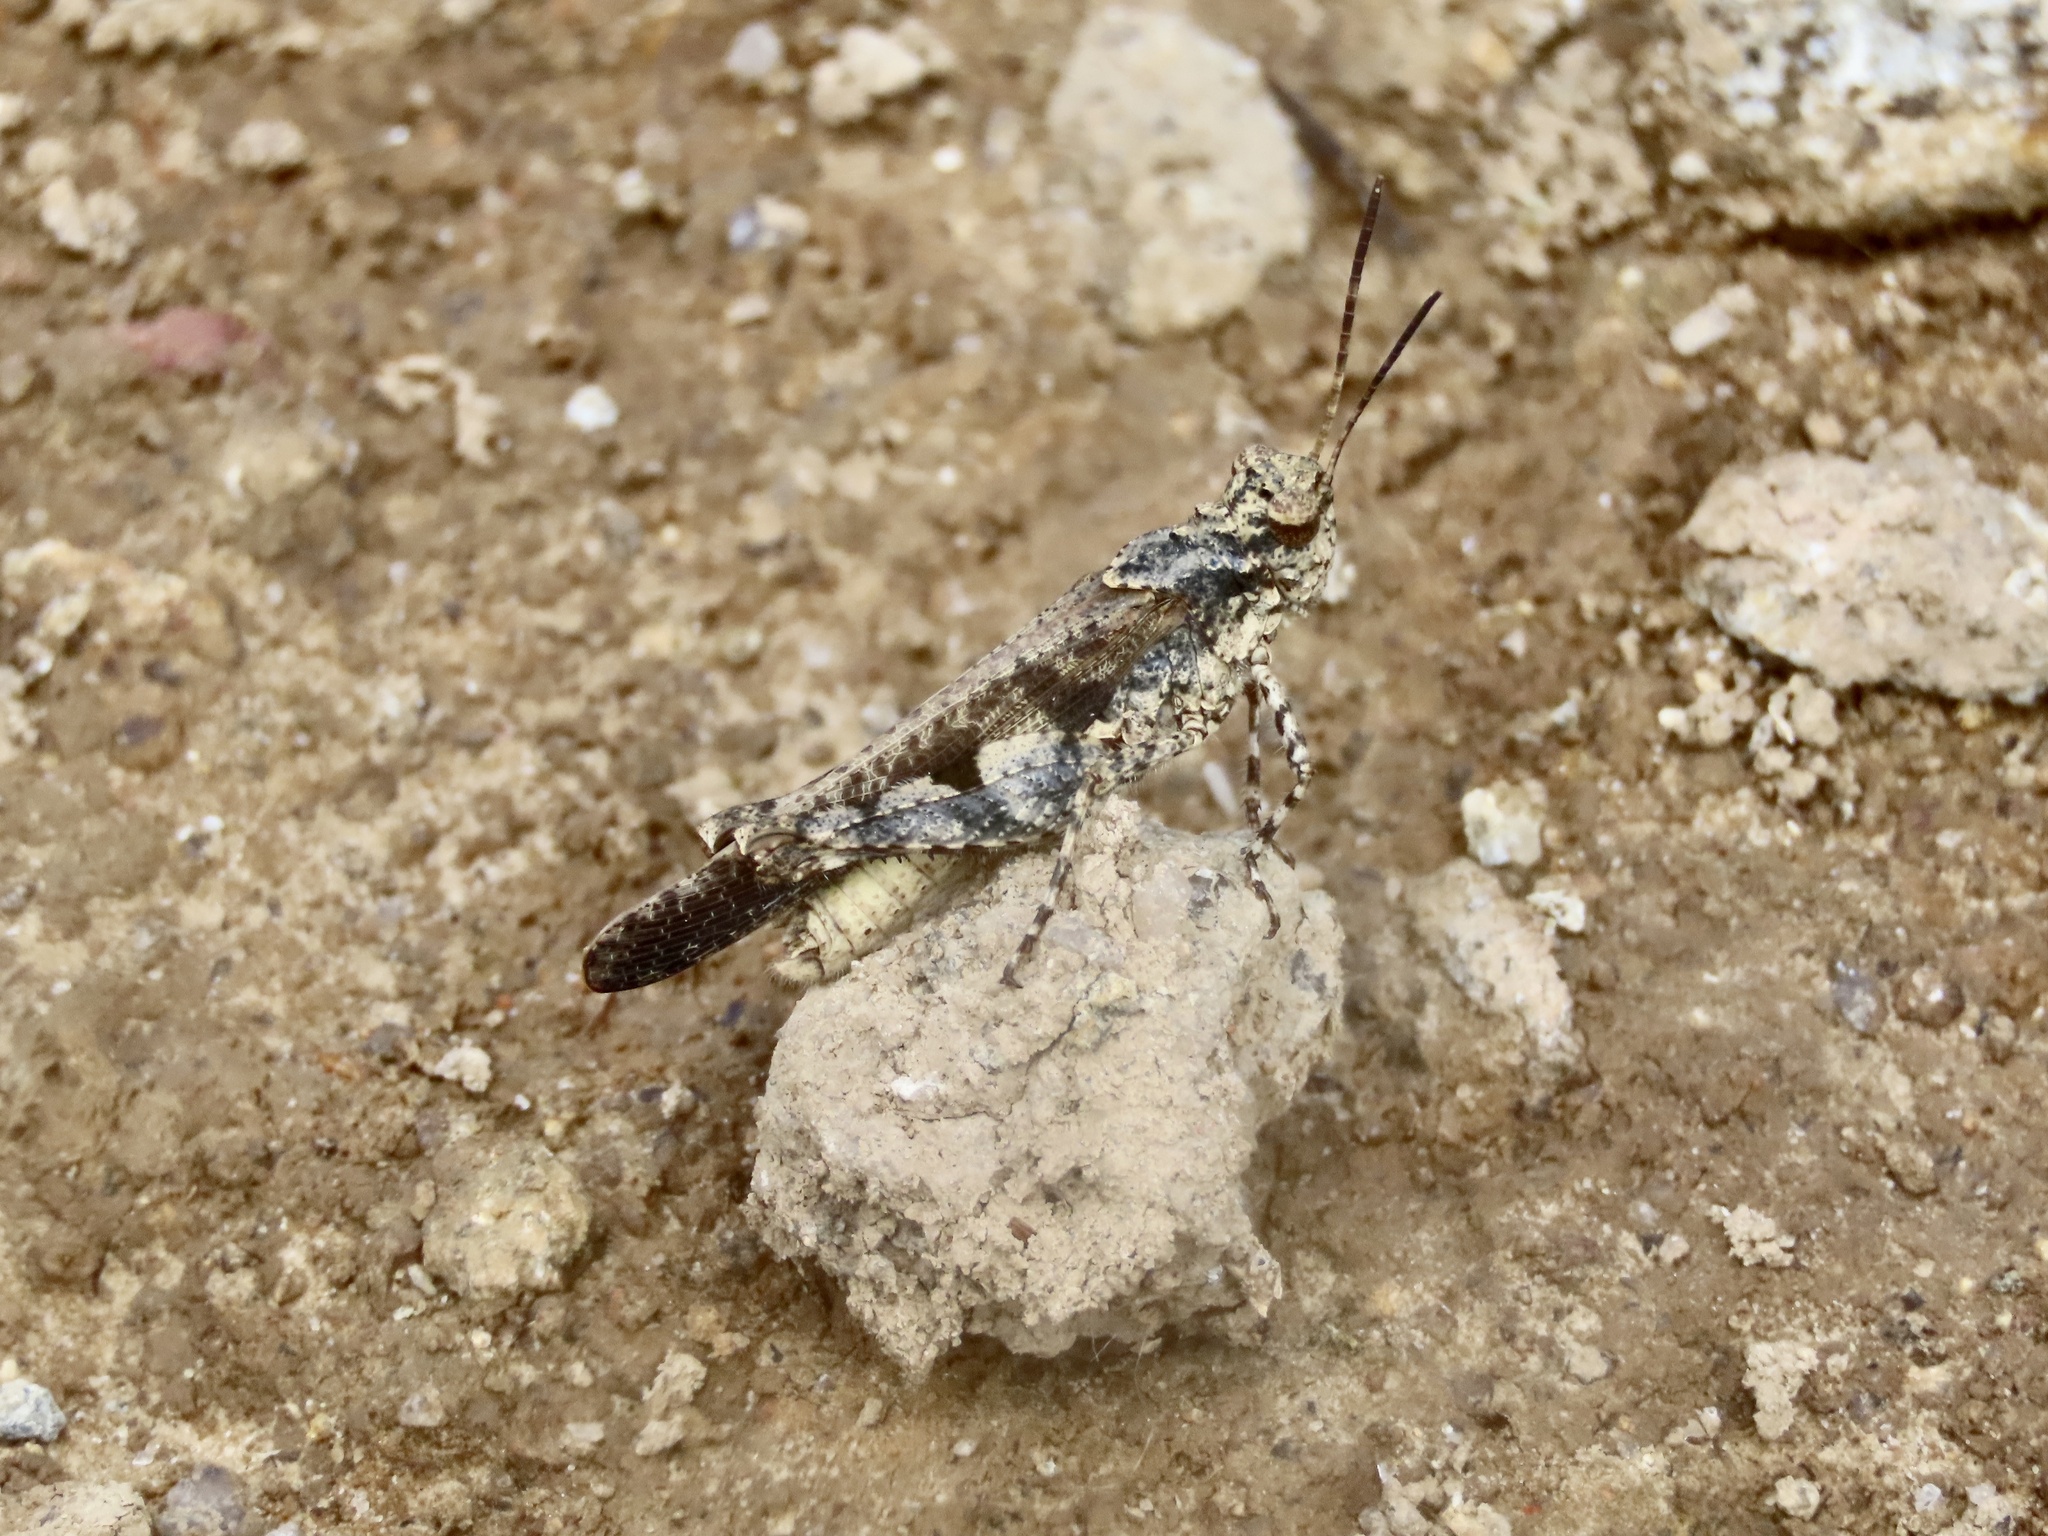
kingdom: Animalia
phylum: Arthropoda
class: Insecta
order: Orthoptera
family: Acrididae
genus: Trilophidia
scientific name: Trilophidia annulata
